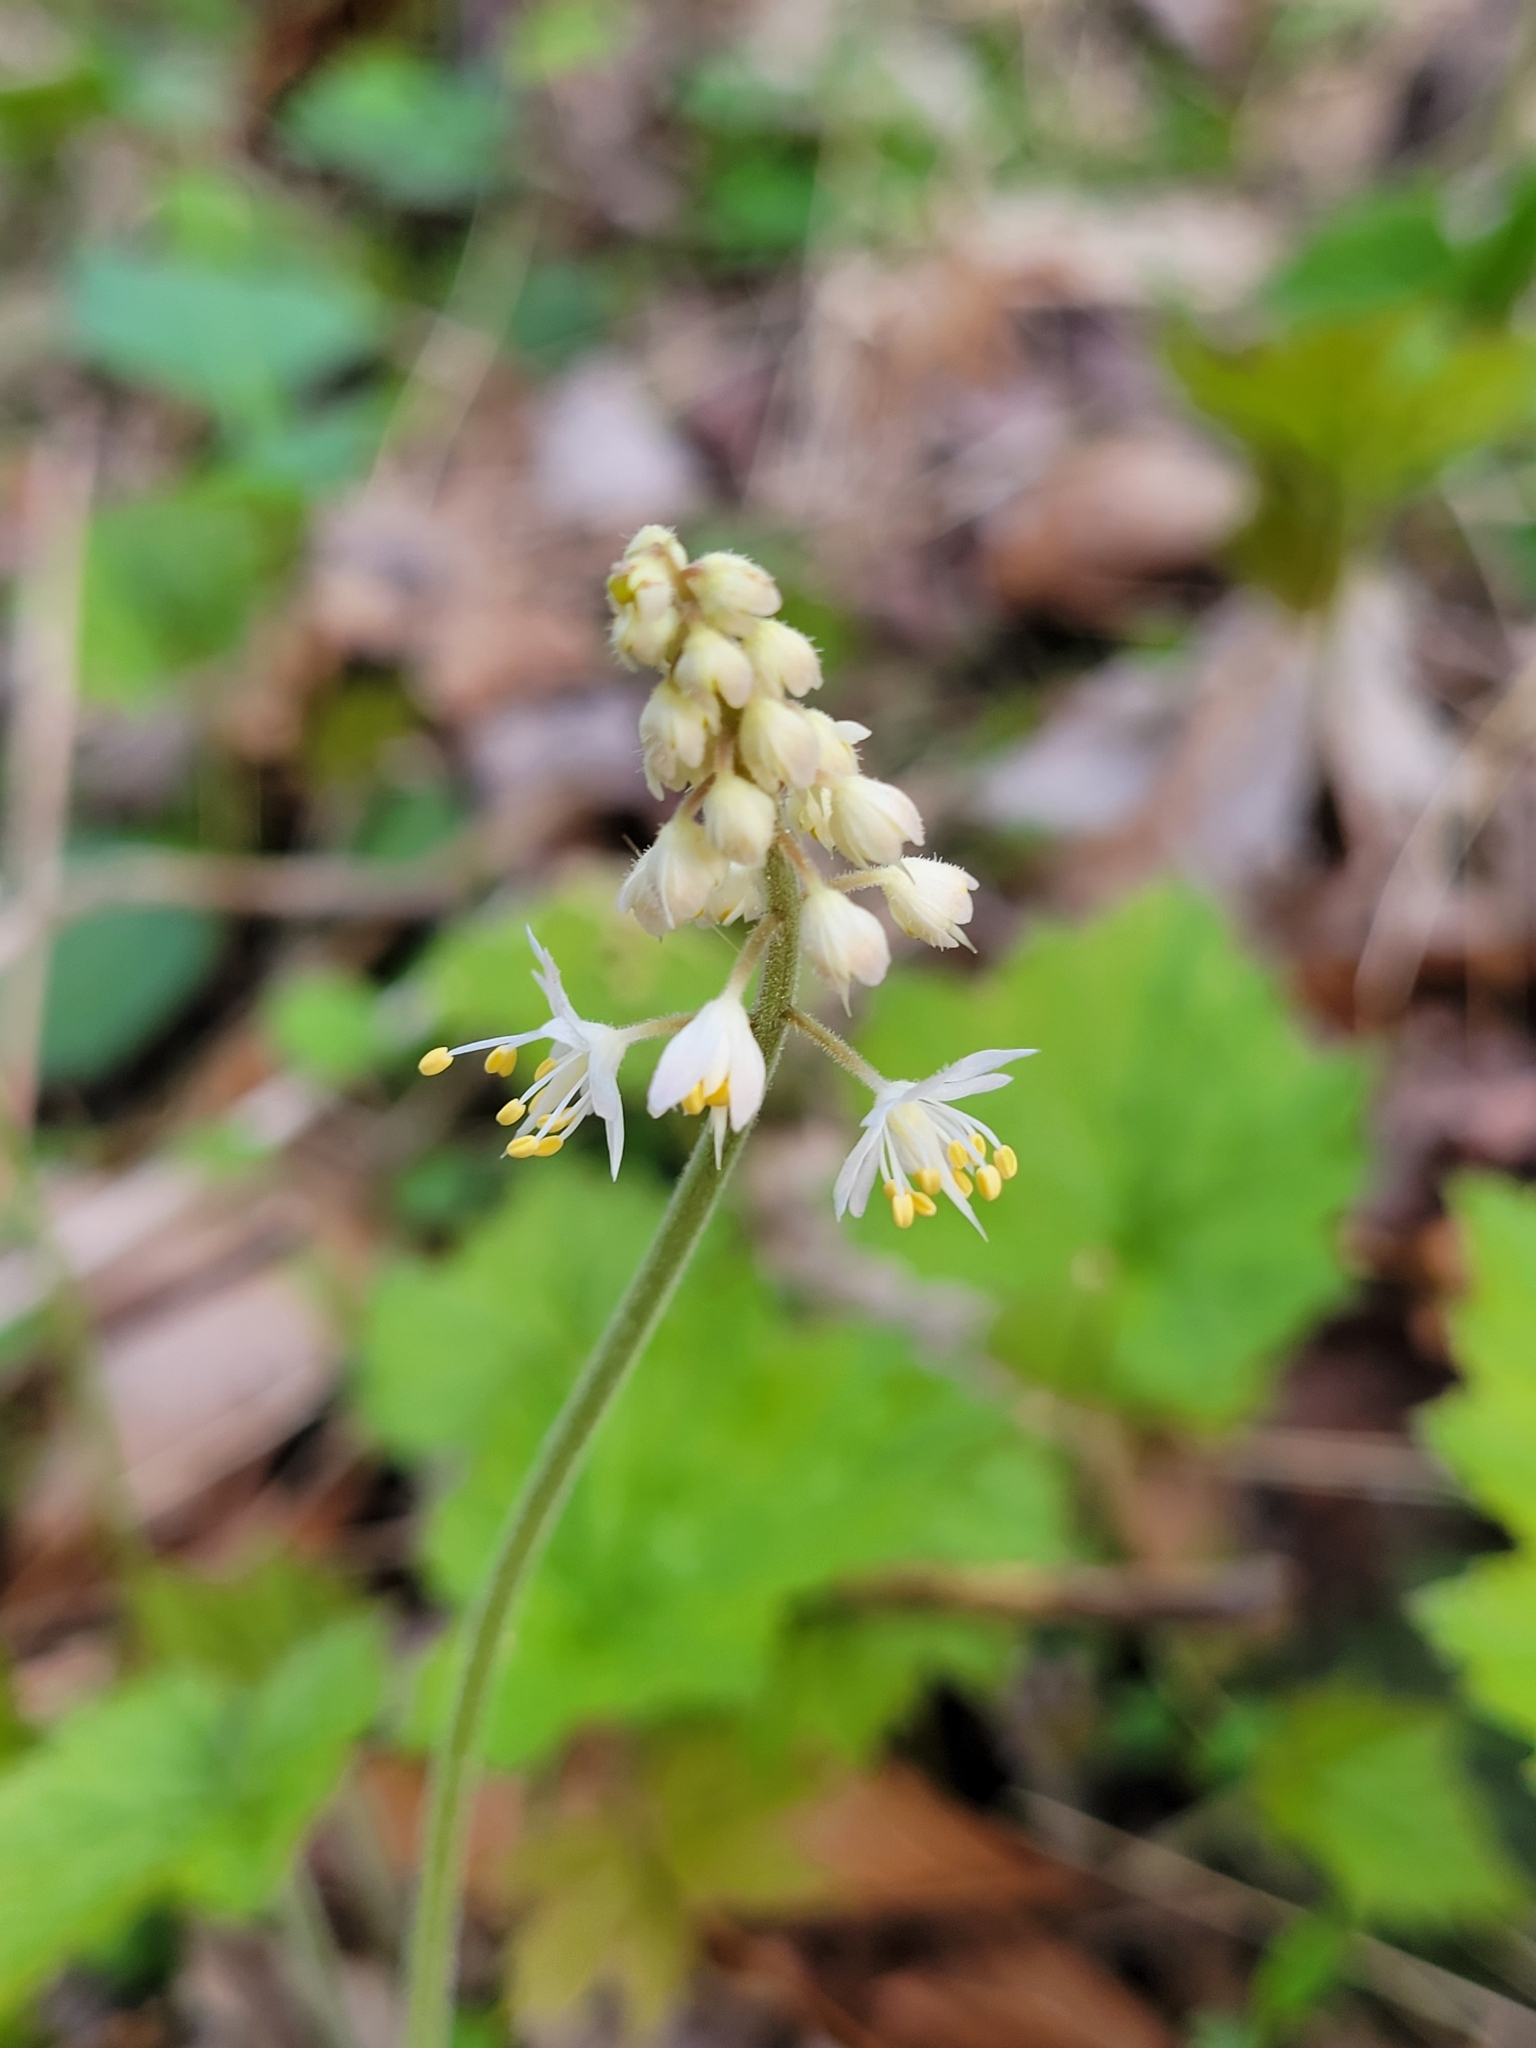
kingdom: Plantae
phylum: Tracheophyta
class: Magnoliopsida
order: Saxifragales
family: Saxifragaceae
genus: Tiarella
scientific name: Tiarella stolonifera
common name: Stoloniferous foamflower
